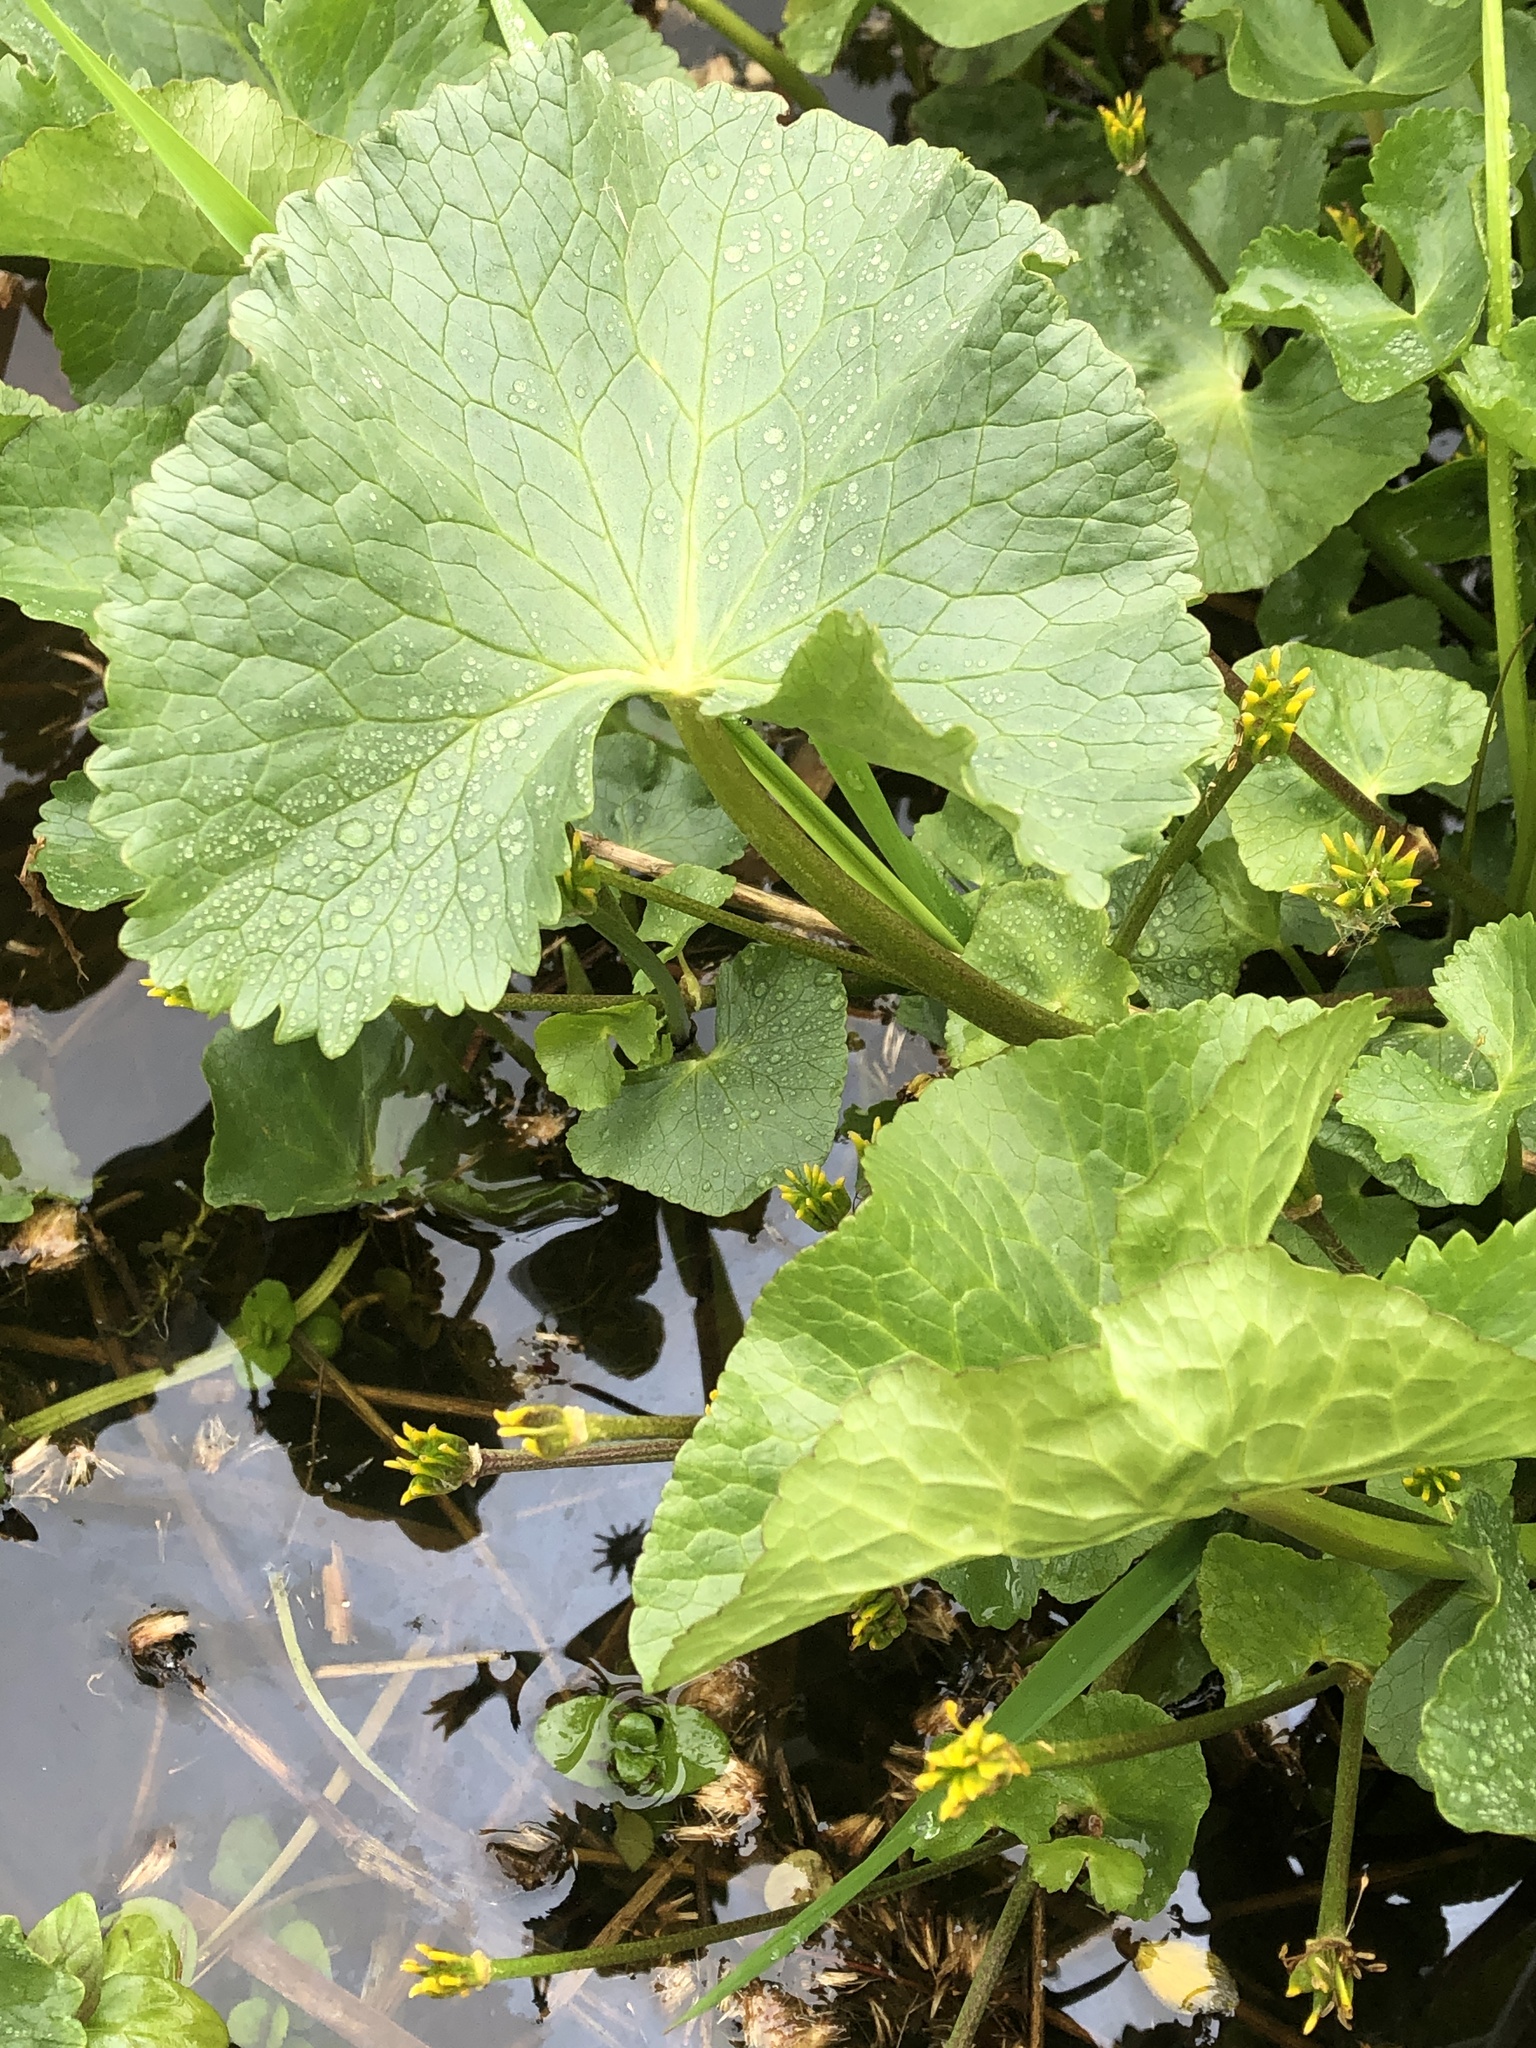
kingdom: Plantae
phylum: Tracheophyta
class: Magnoliopsida
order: Ranunculales
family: Ranunculaceae
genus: Caltha
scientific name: Caltha palustris
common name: Marsh marigold
